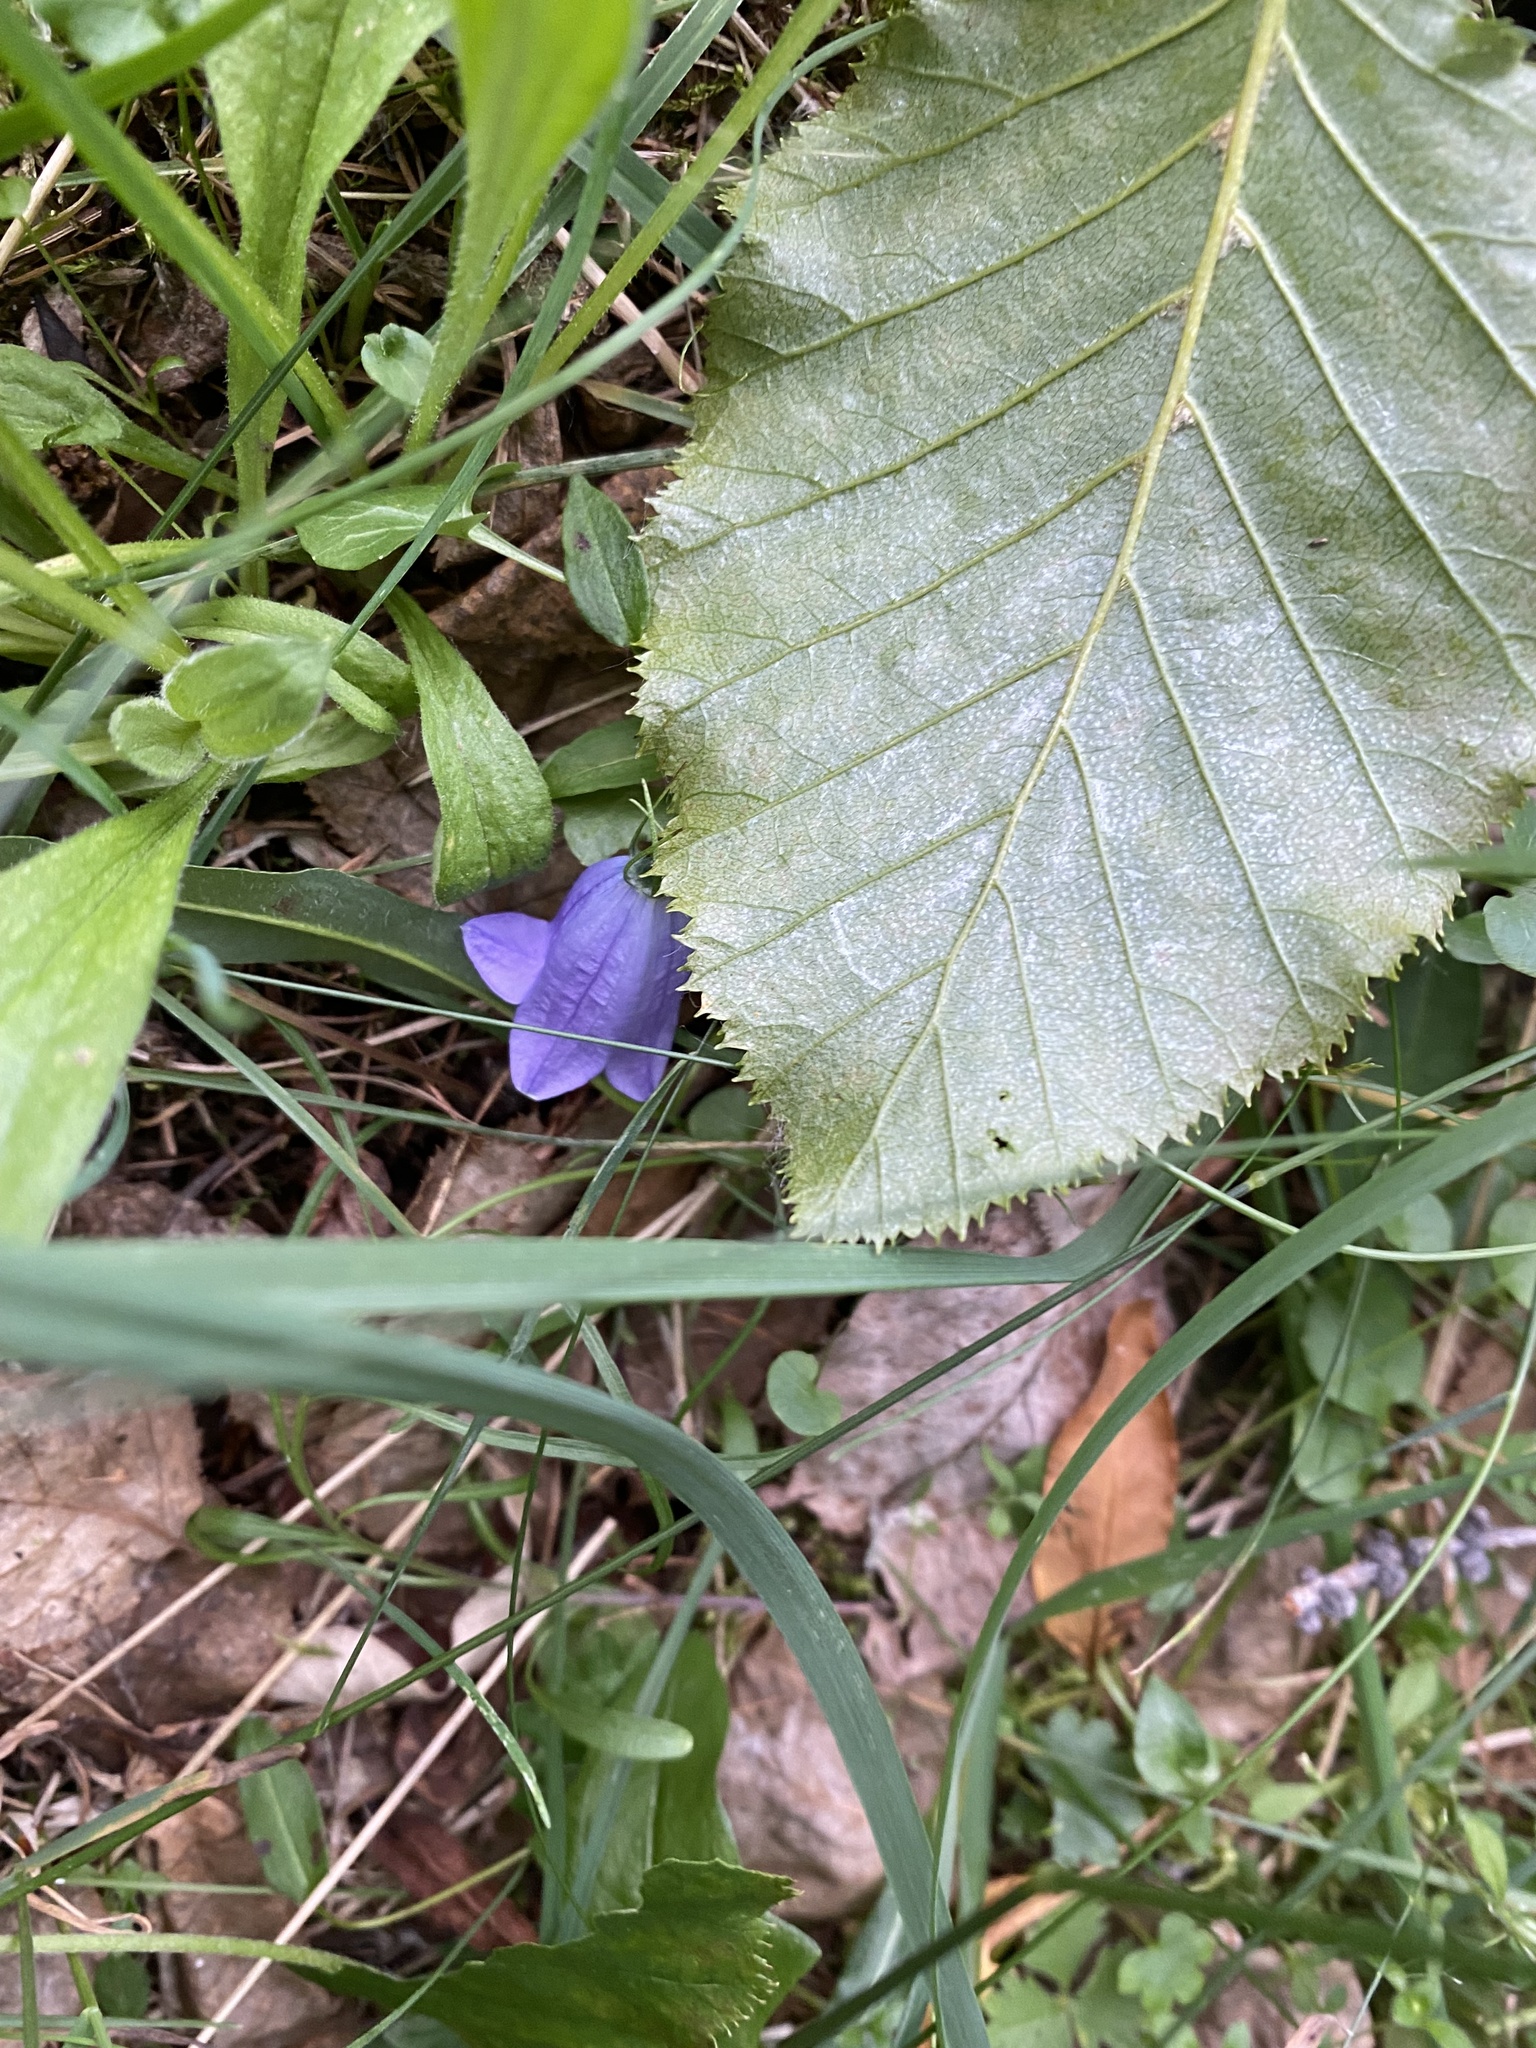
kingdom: Plantae
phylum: Tracheophyta
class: Magnoliopsida
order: Asterales
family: Campanulaceae
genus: Campanula
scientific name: Campanula rotundifolia
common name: Harebell
